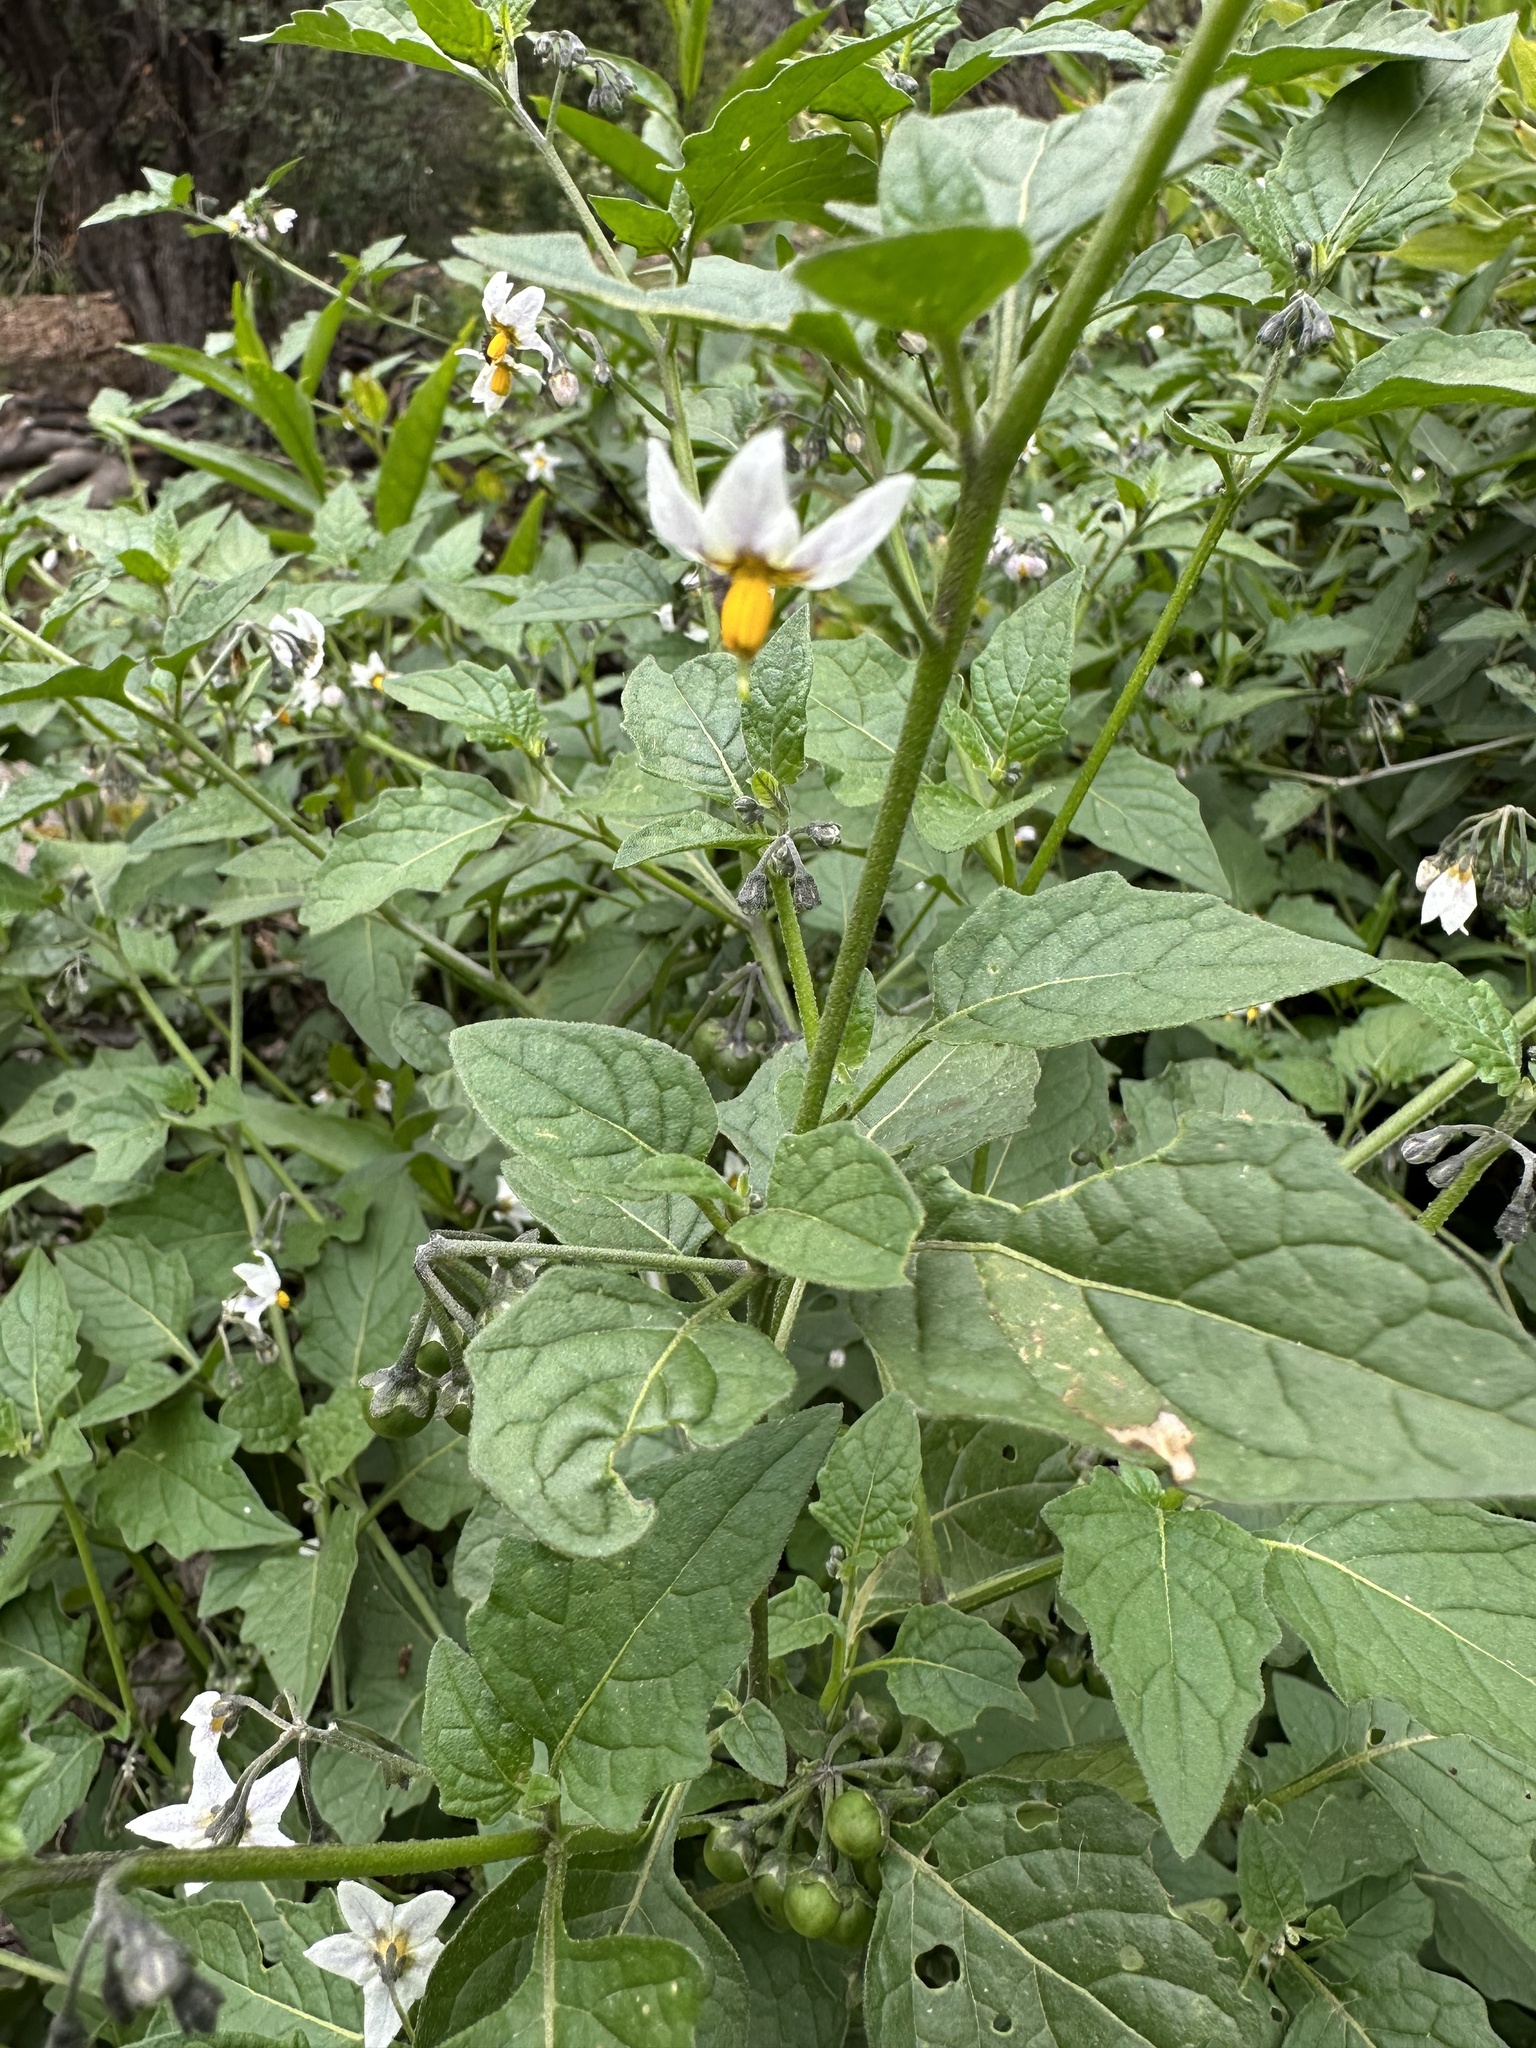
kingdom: Plantae
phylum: Tracheophyta
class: Magnoliopsida
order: Solanales
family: Solanaceae
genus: Solanum
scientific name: Solanum furcatum
